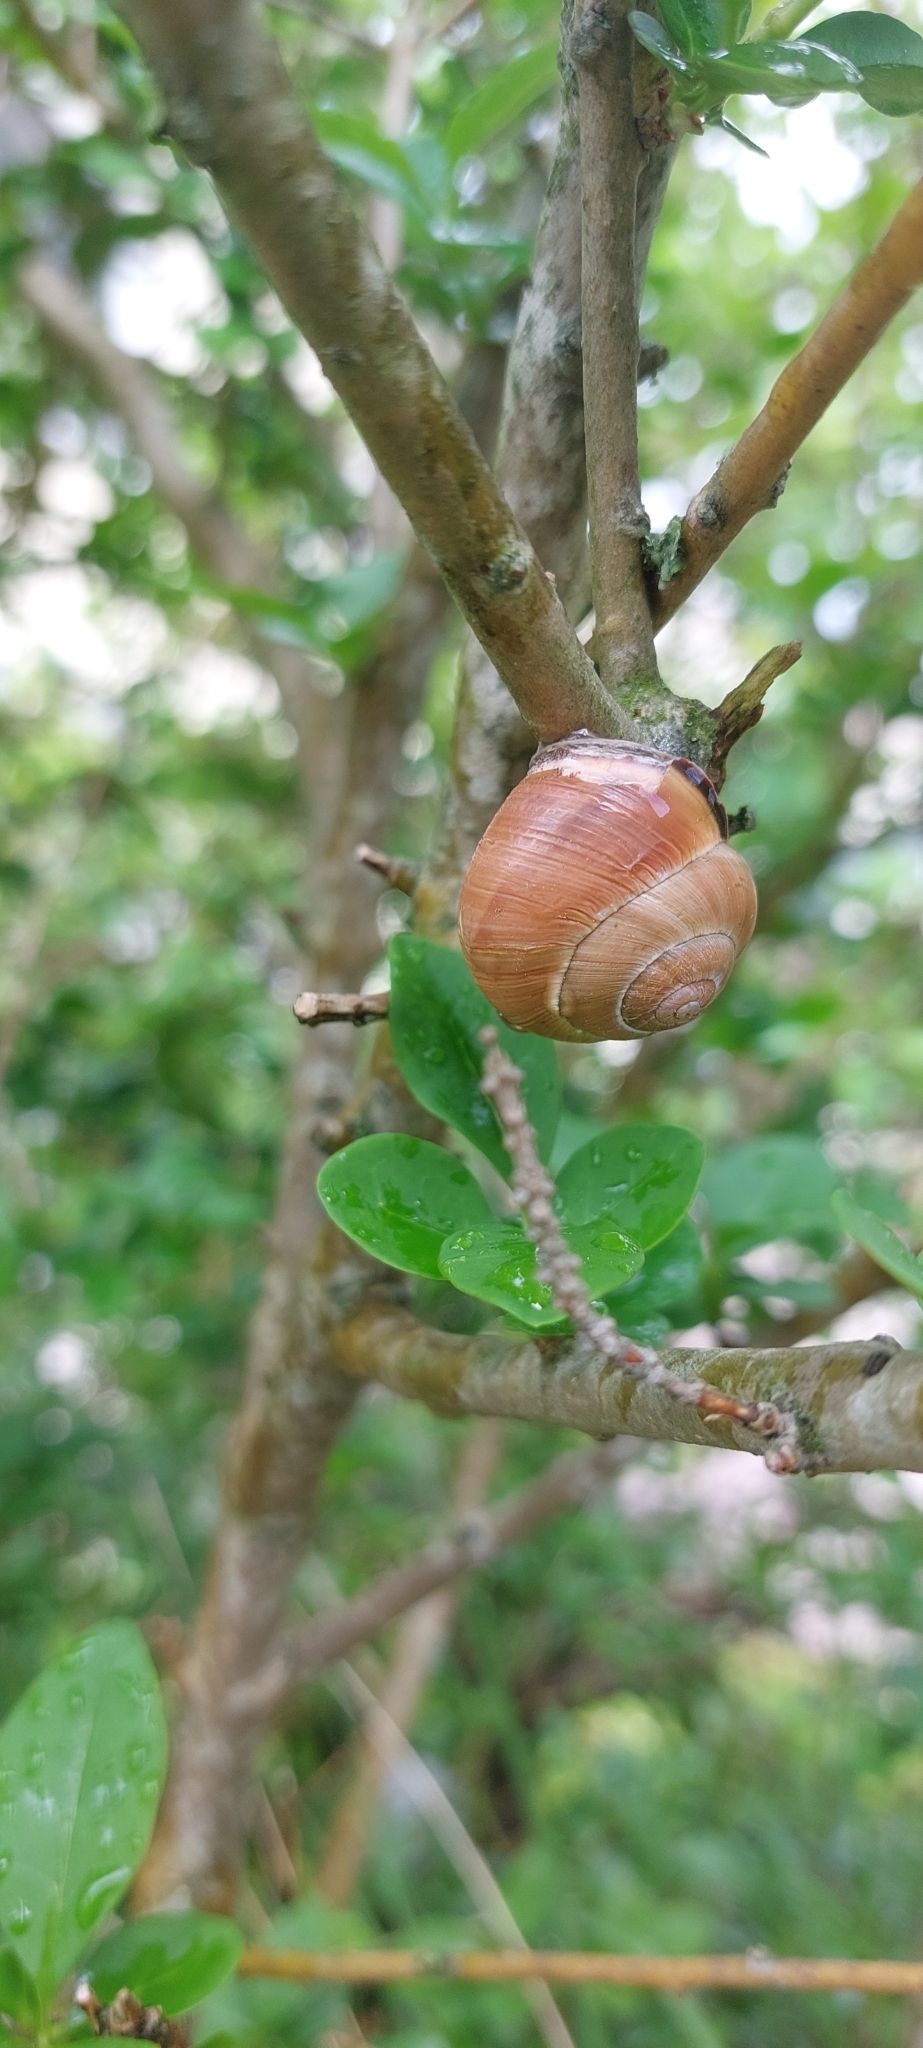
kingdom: Animalia
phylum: Mollusca
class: Gastropoda
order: Stylommatophora
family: Helicidae
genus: Cepaea
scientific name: Cepaea nemoralis
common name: Grovesnail
